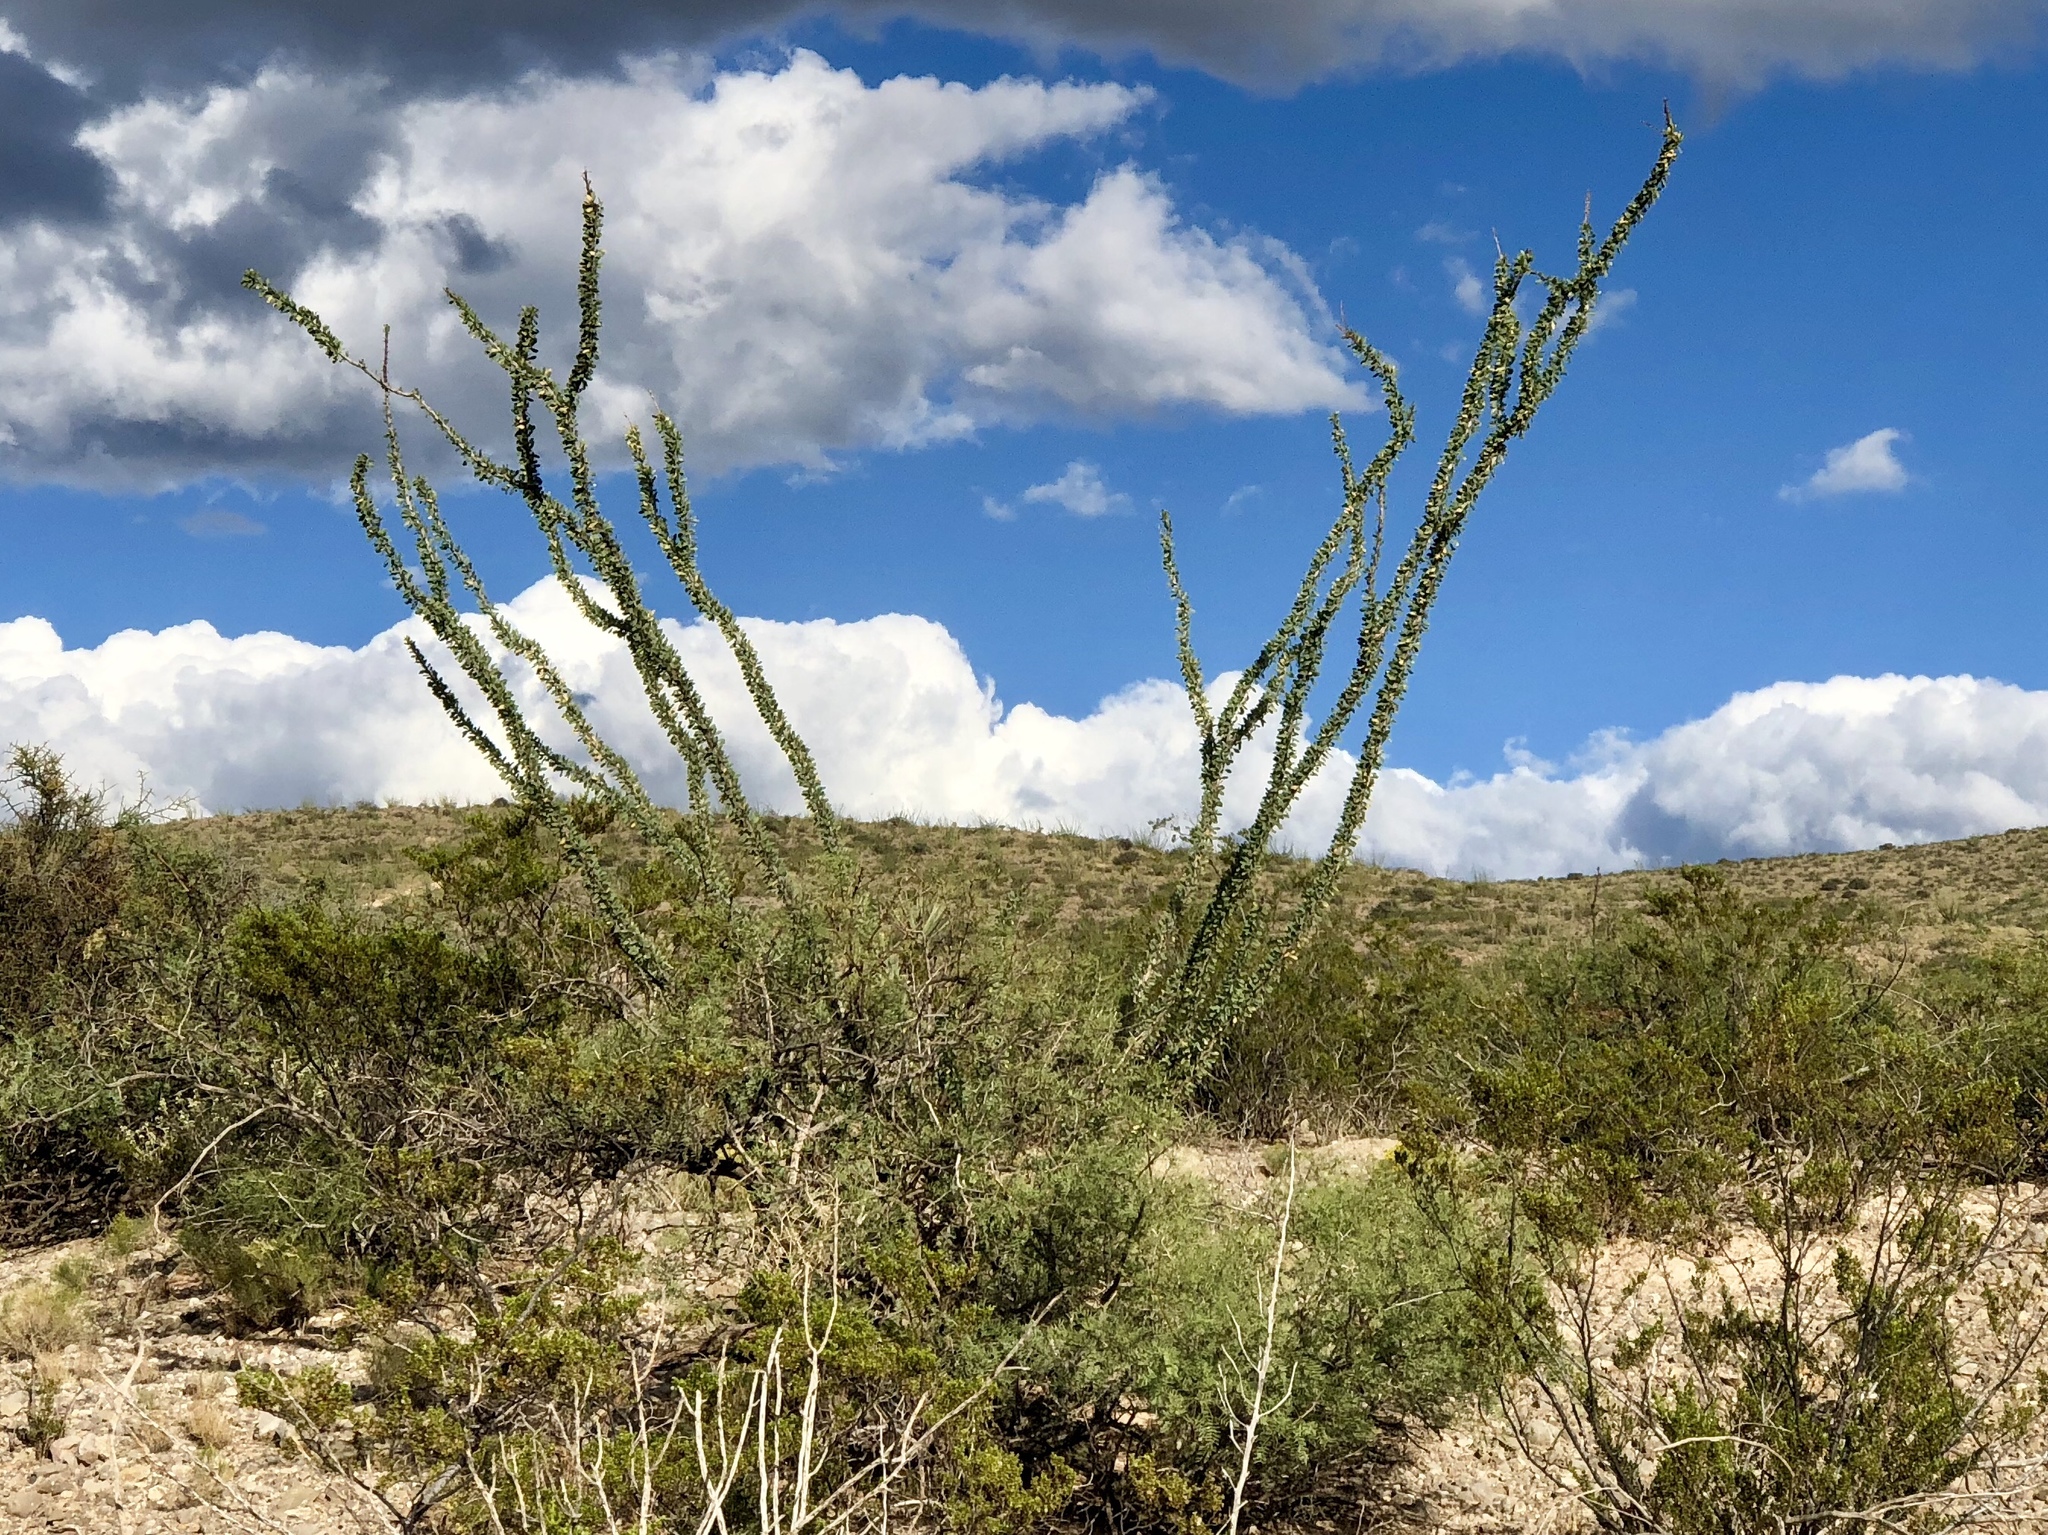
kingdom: Plantae
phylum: Tracheophyta
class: Magnoliopsida
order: Ericales
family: Fouquieriaceae
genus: Fouquieria
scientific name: Fouquieria splendens
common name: Vine-cactus
